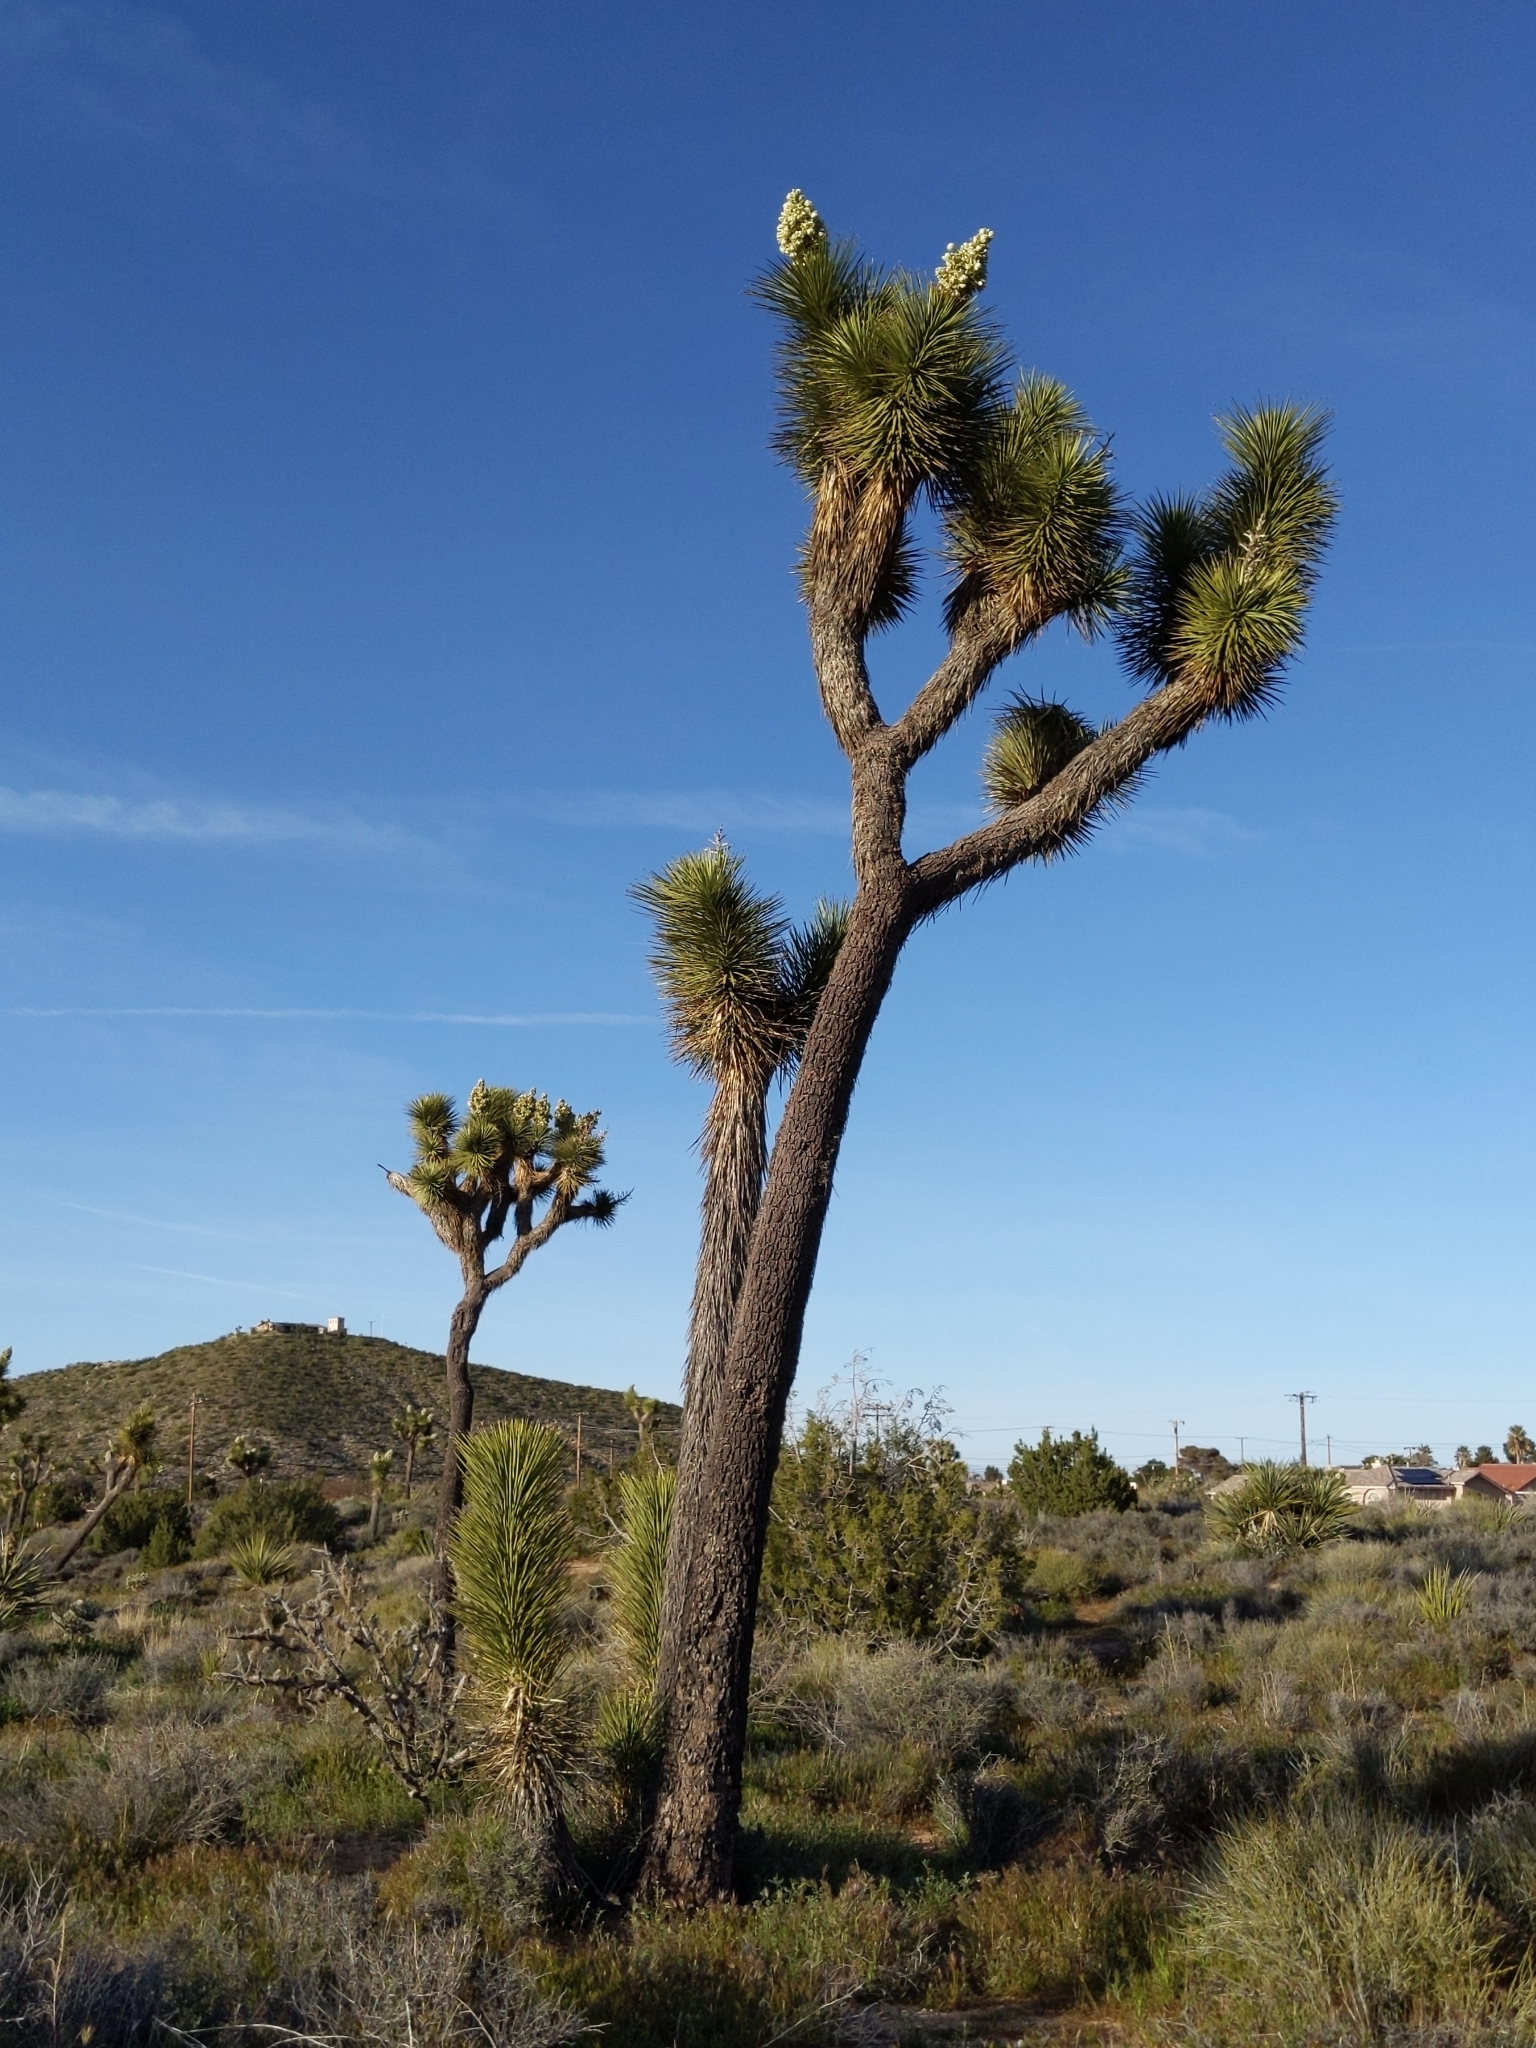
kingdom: Plantae
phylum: Tracheophyta
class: Liliopsida
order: Asparagales
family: Asparagaceae
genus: Yucca
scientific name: Yucca brevifolia
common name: Joshua tree
